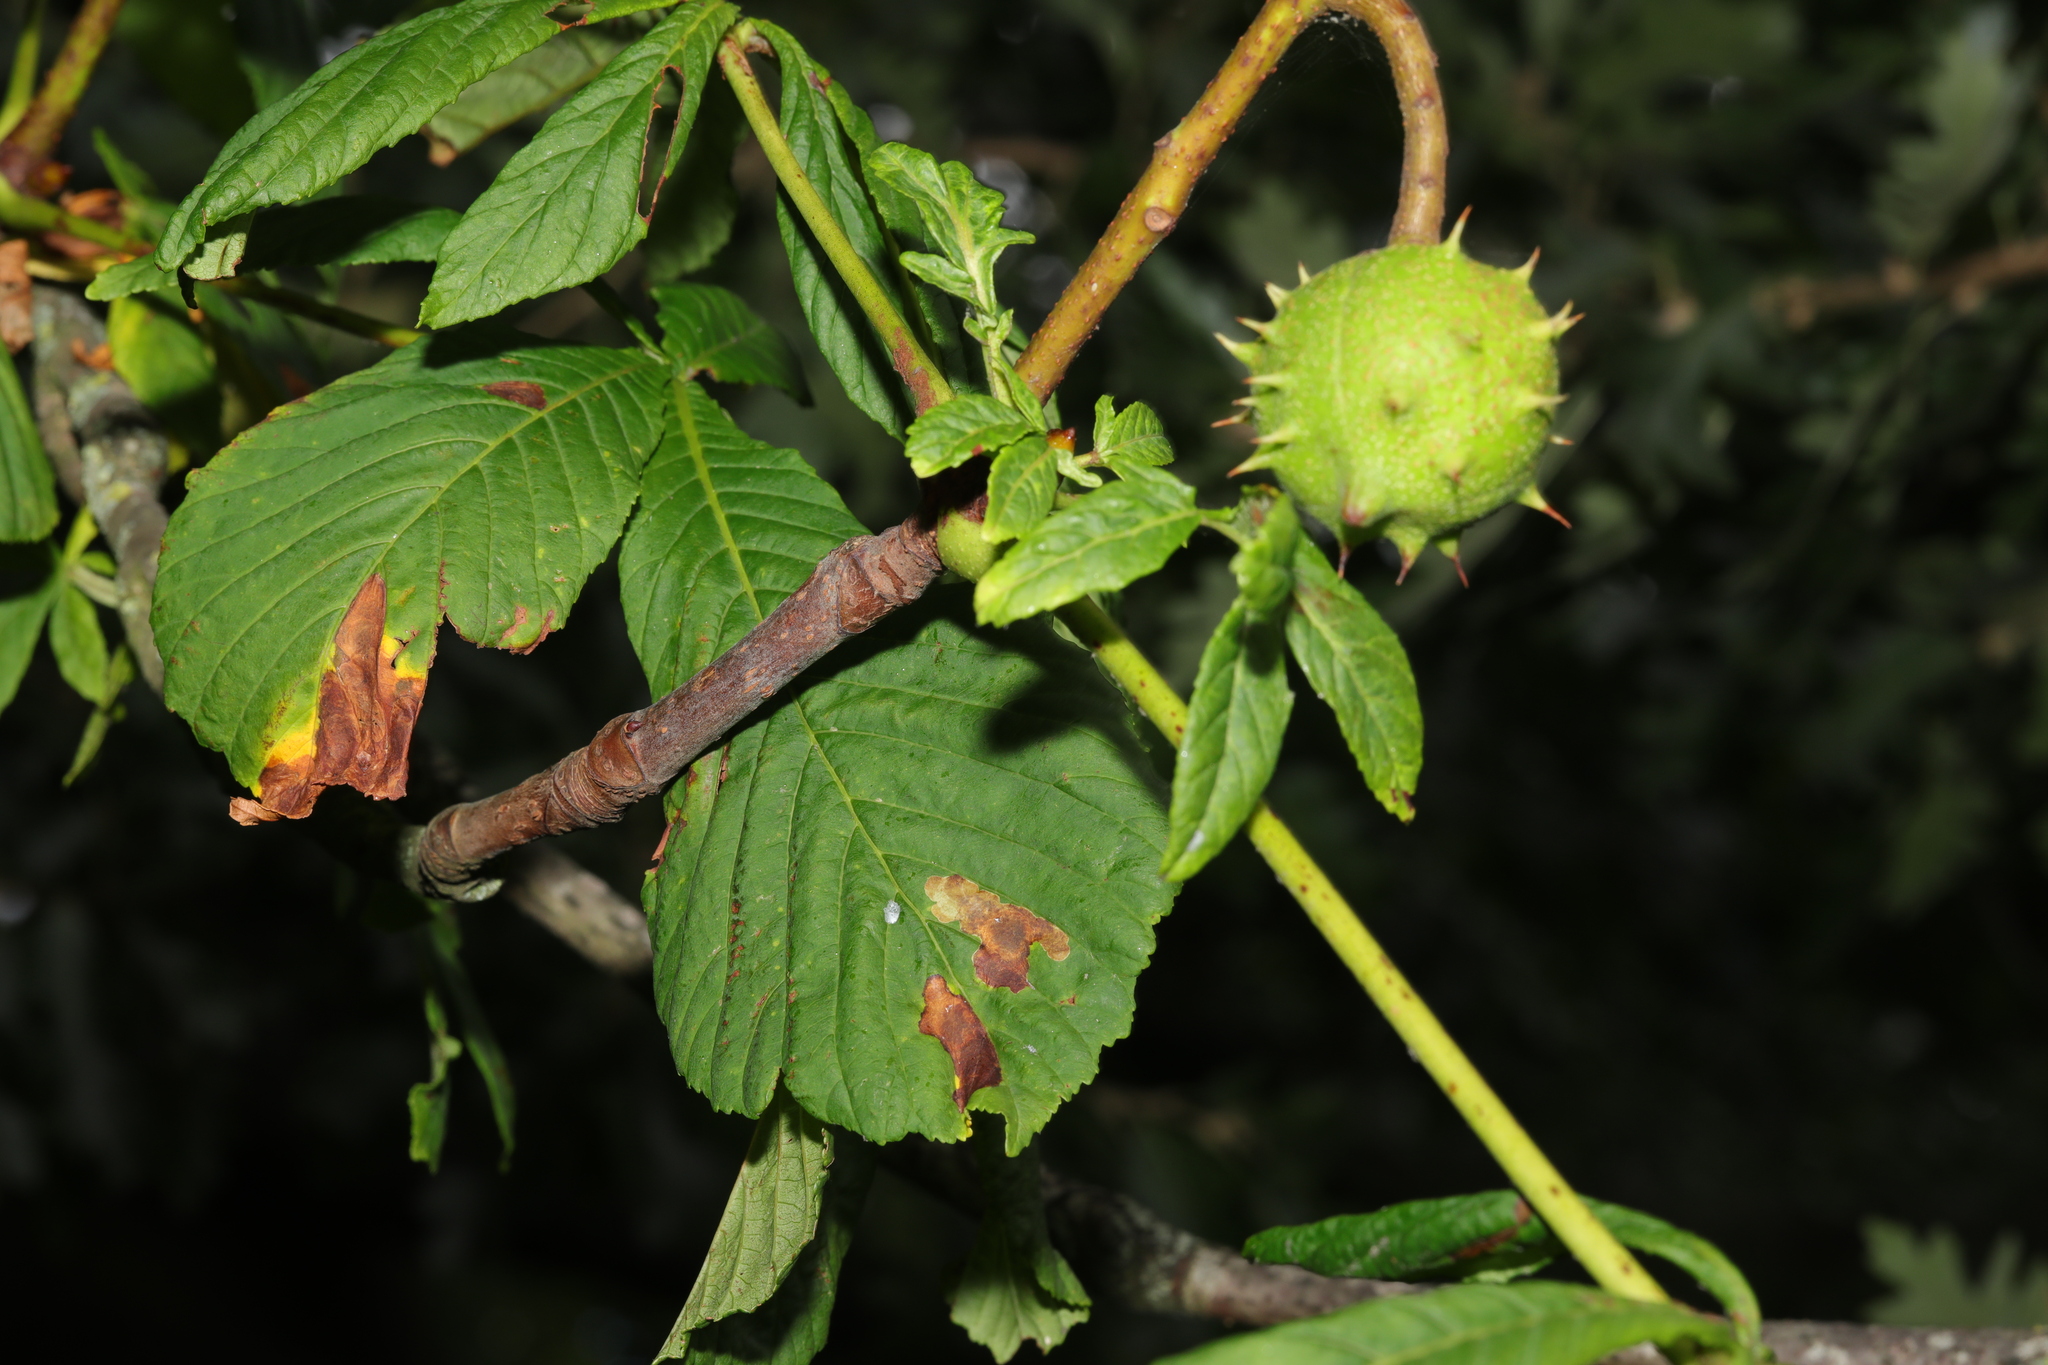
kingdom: Plantae
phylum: Tracheophyta
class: Magnoliopsida
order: Sapindales
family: Sapindaceae
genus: Aesculus
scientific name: Aesculus hippocastanum
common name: Horse-chestnut
